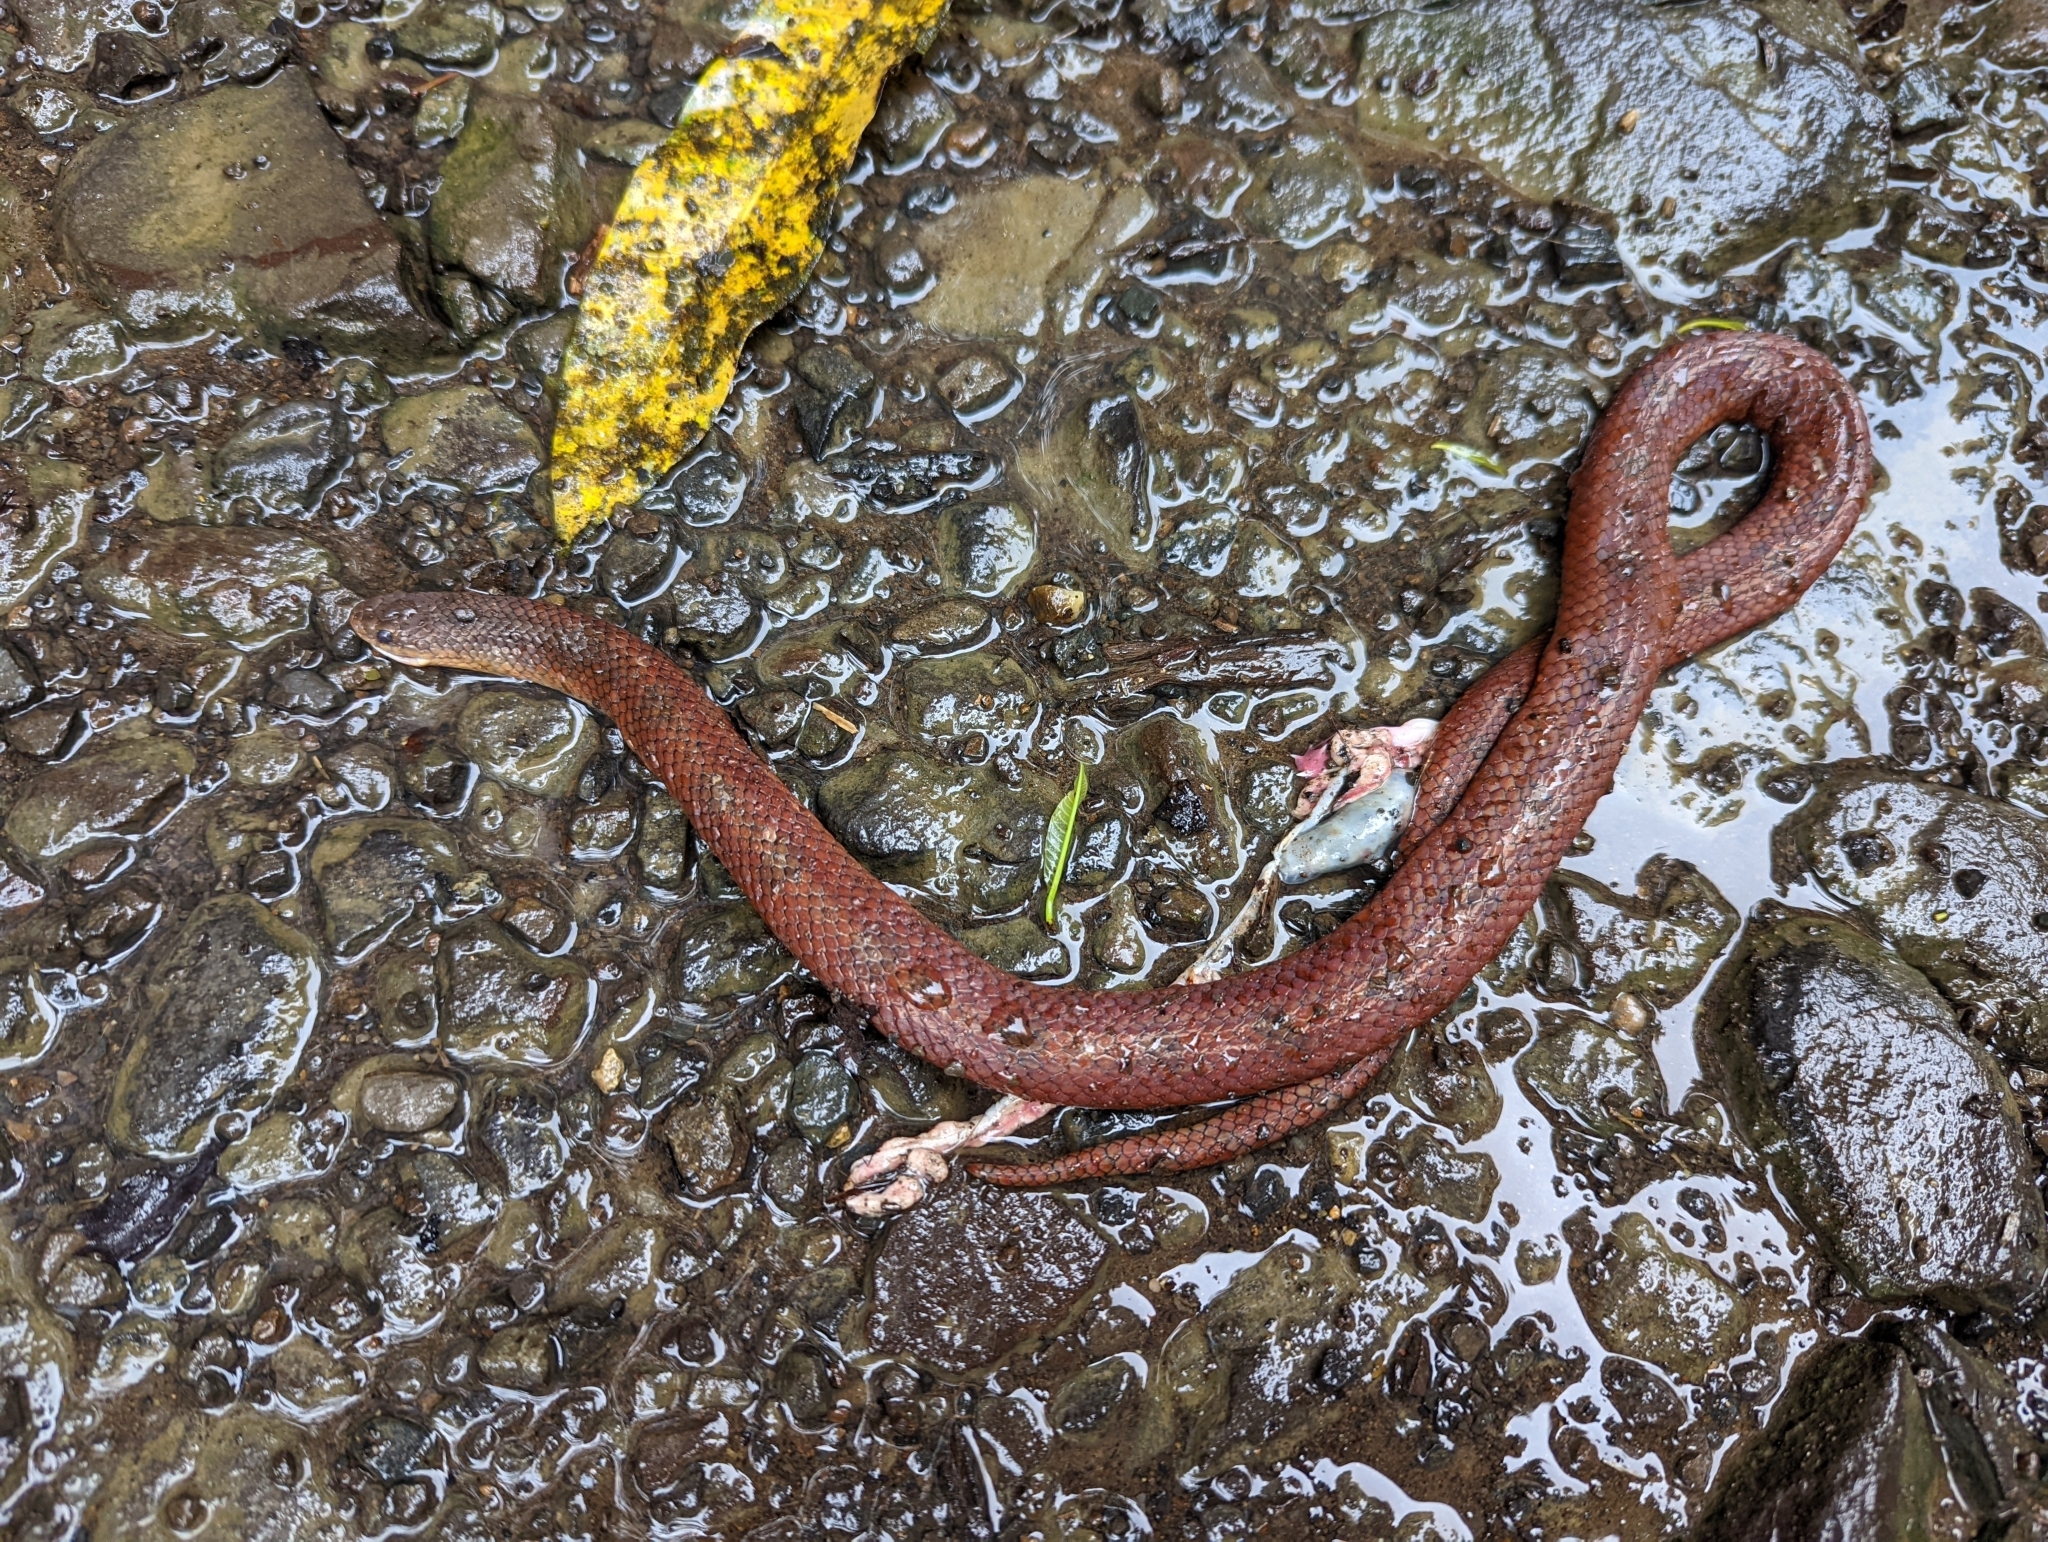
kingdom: Animalia
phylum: Chordata
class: Squamata
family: Colubridae
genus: Stenorrhina
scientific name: Stenorrhina degenhardtii
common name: Degenhardt's scorpion-eating snake
